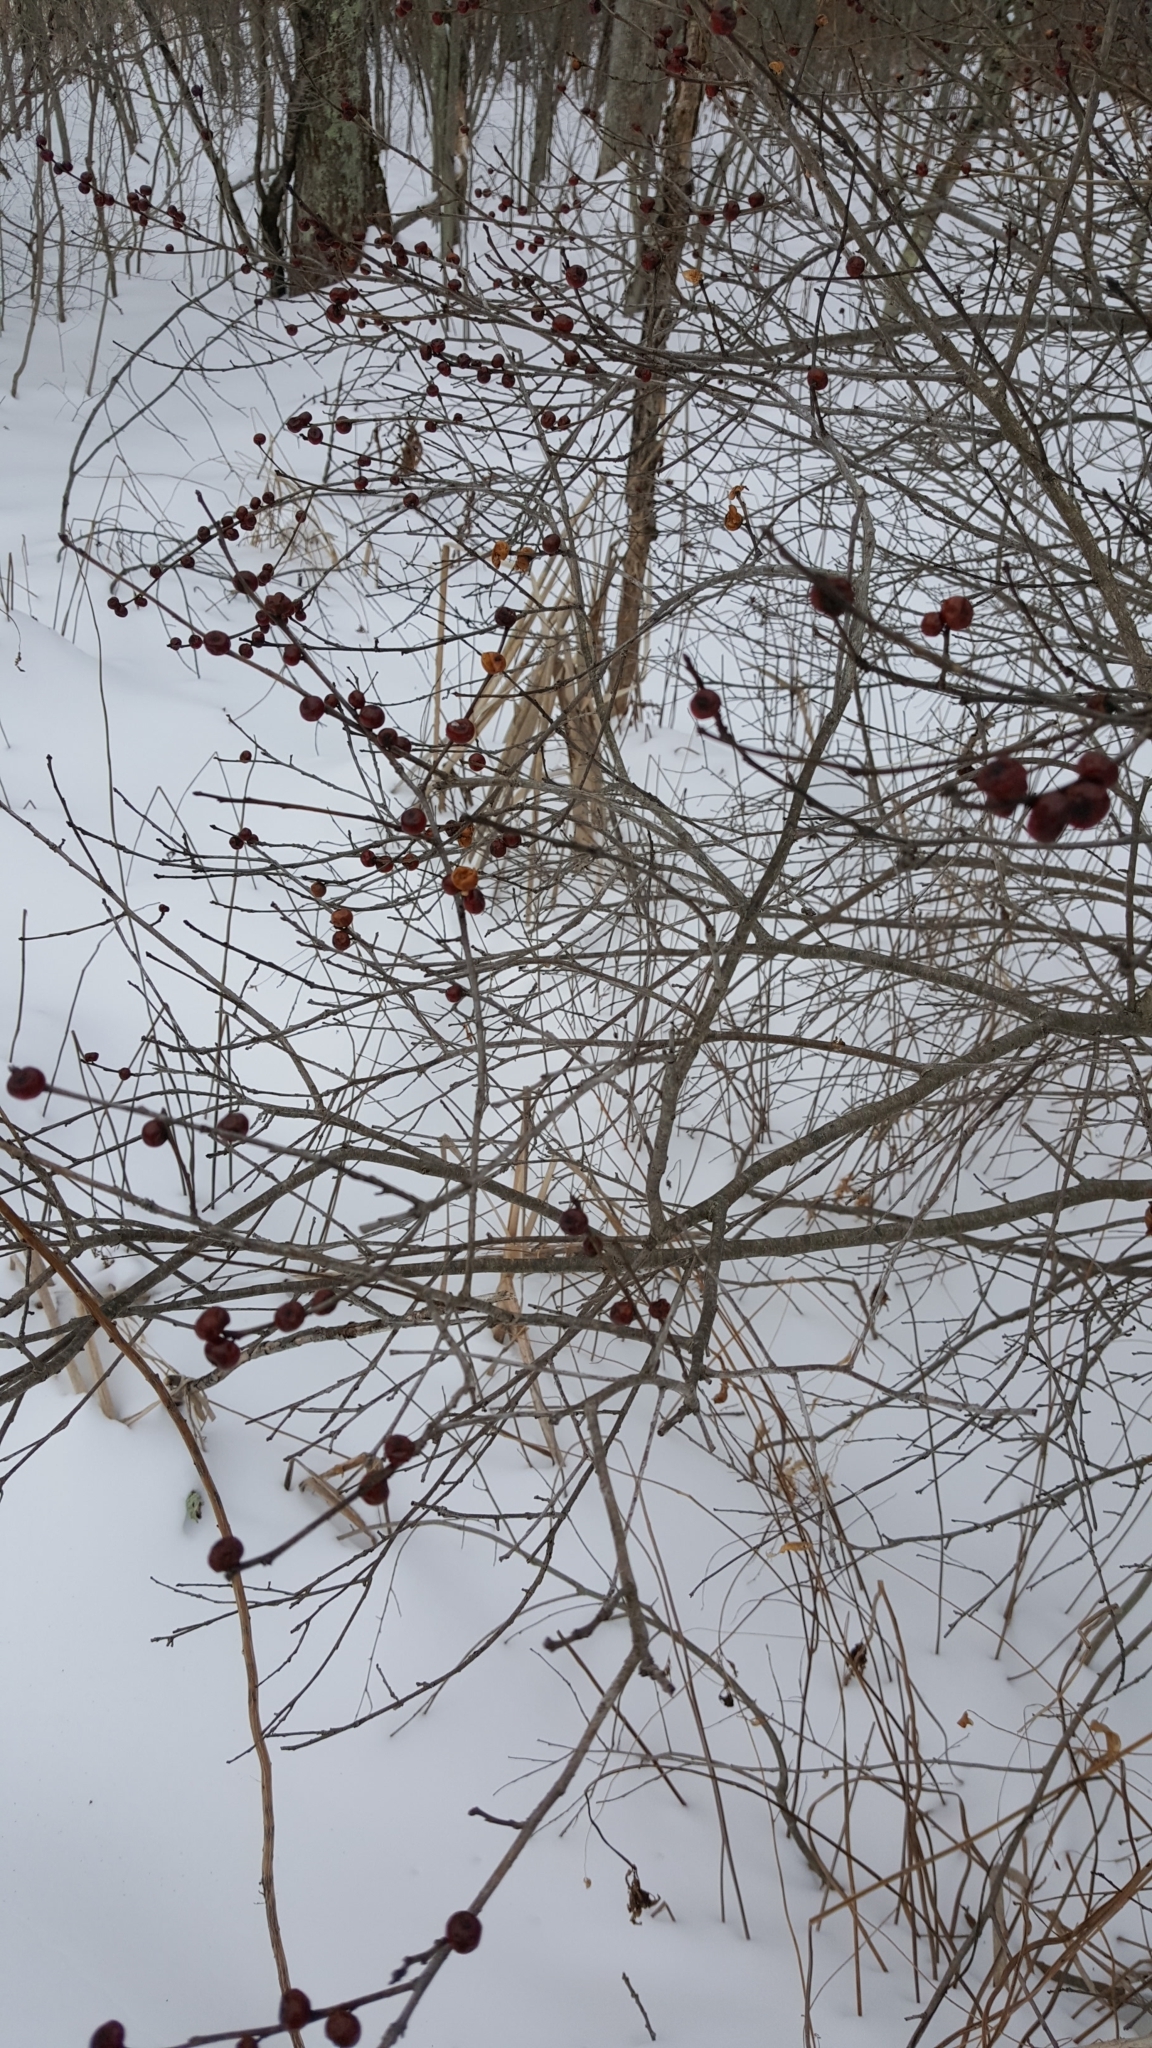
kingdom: Plantae
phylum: Tracheophyta
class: Magnoliopsida
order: Aquifoliales
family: Aquifoliaceae
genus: Ilex
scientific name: Ilex verticillata
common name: Virginia winterberry
